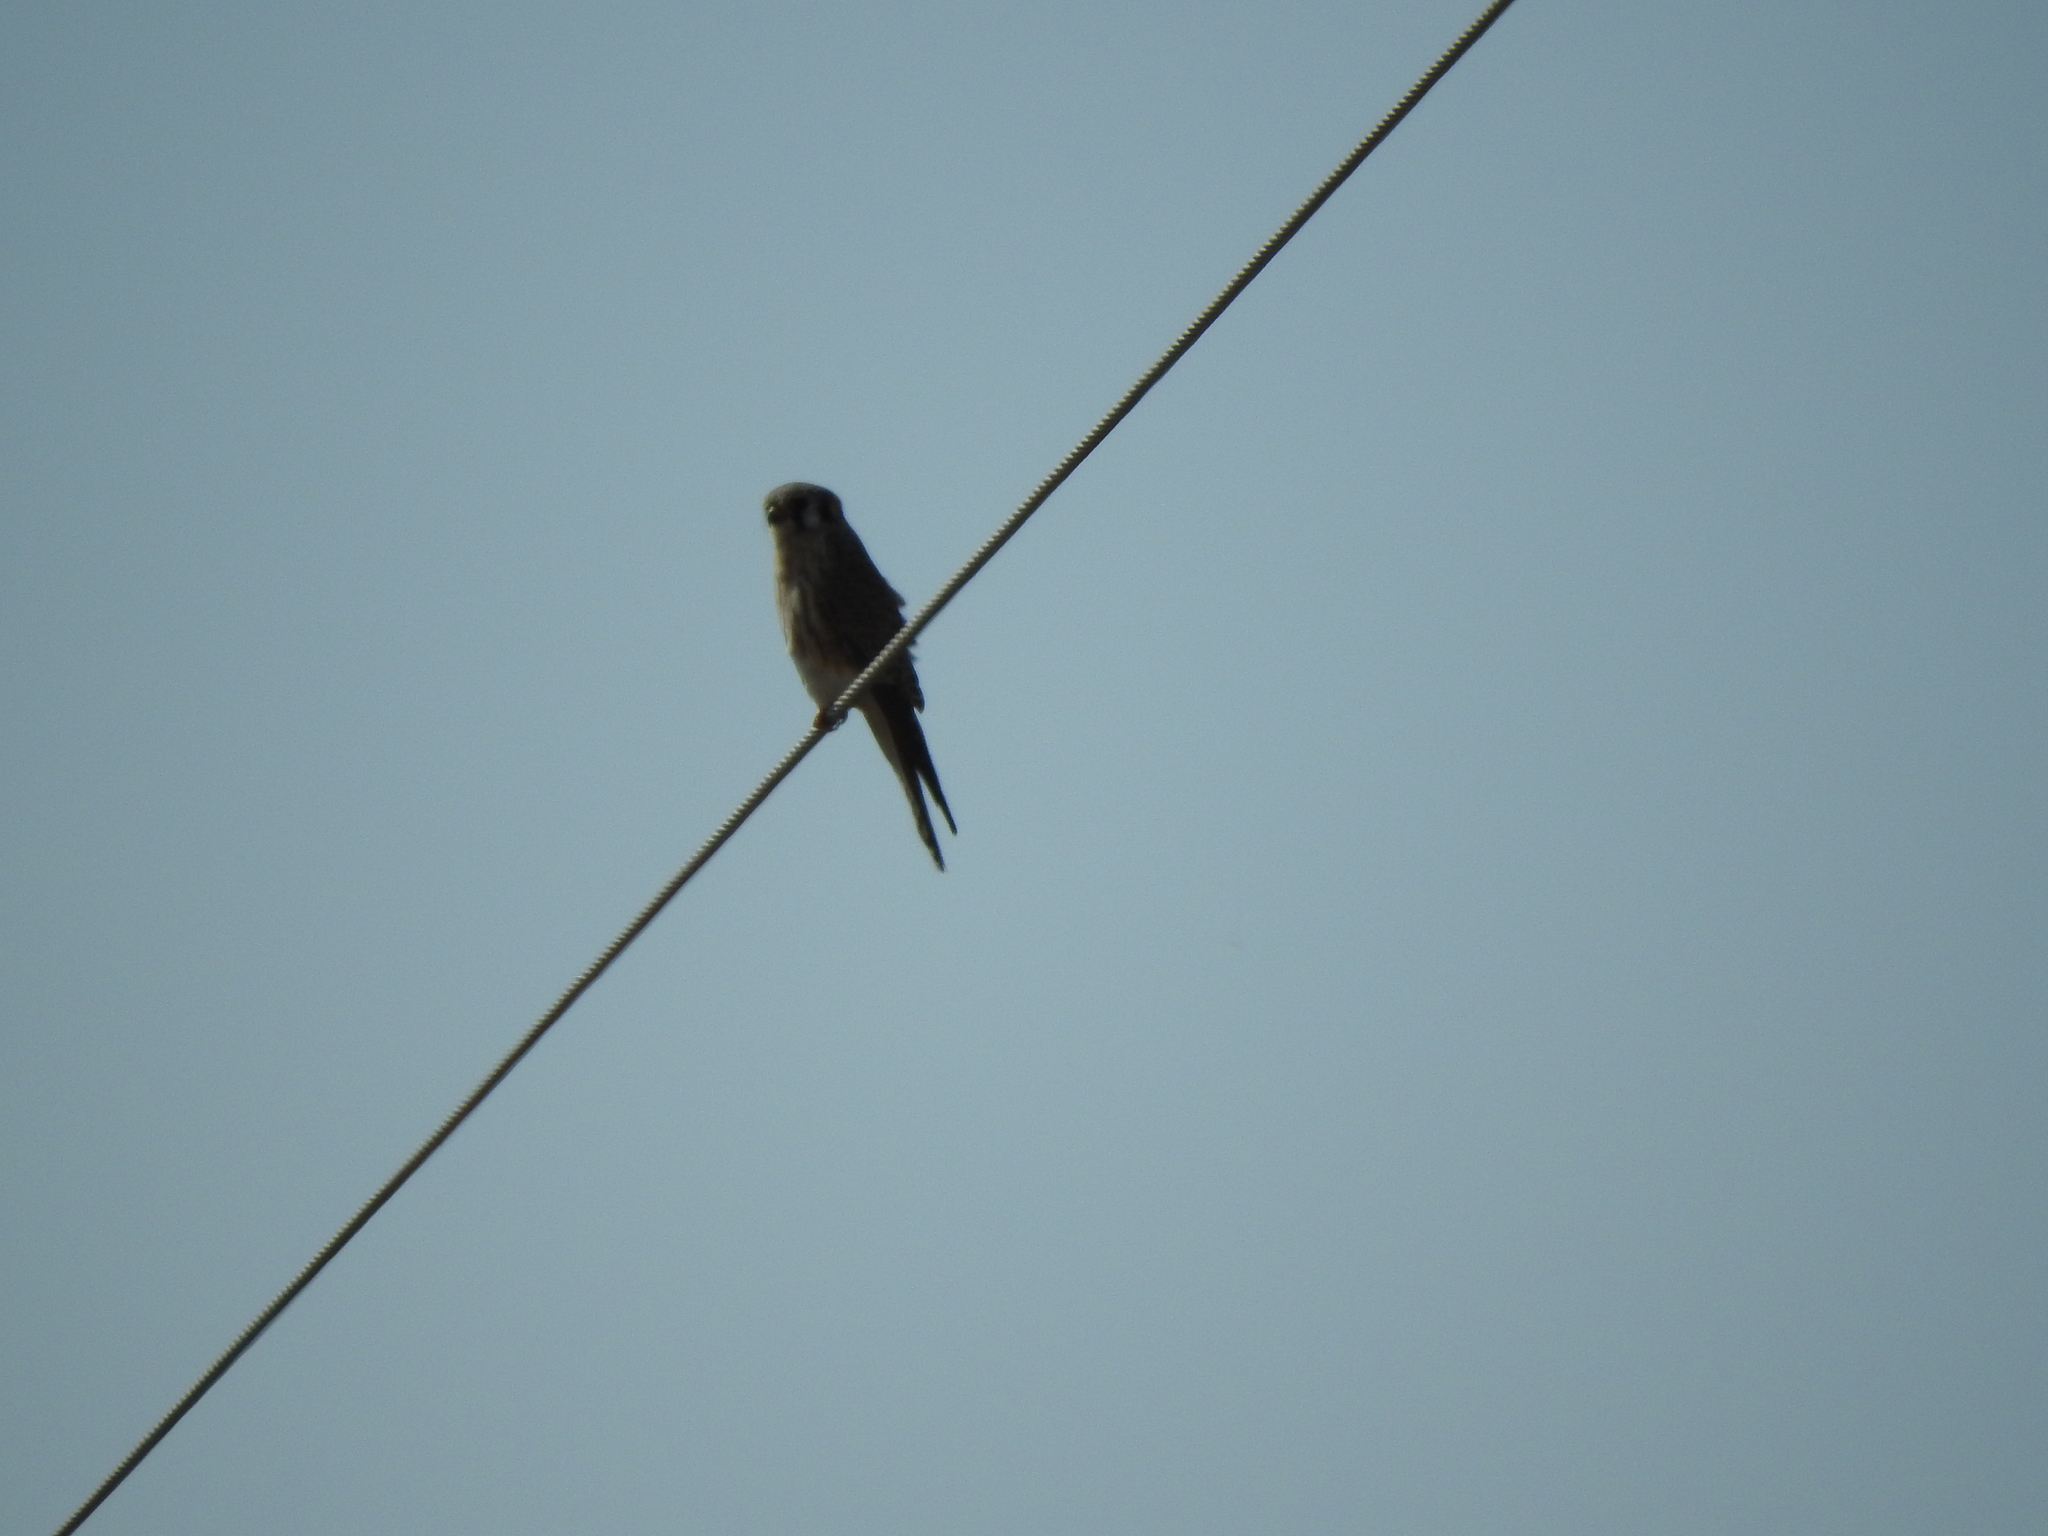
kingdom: Animalia
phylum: Chordata
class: Aves
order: Falconiformes
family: Falconidae
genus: Falco
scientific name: Falco sparverius
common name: American kestrel
